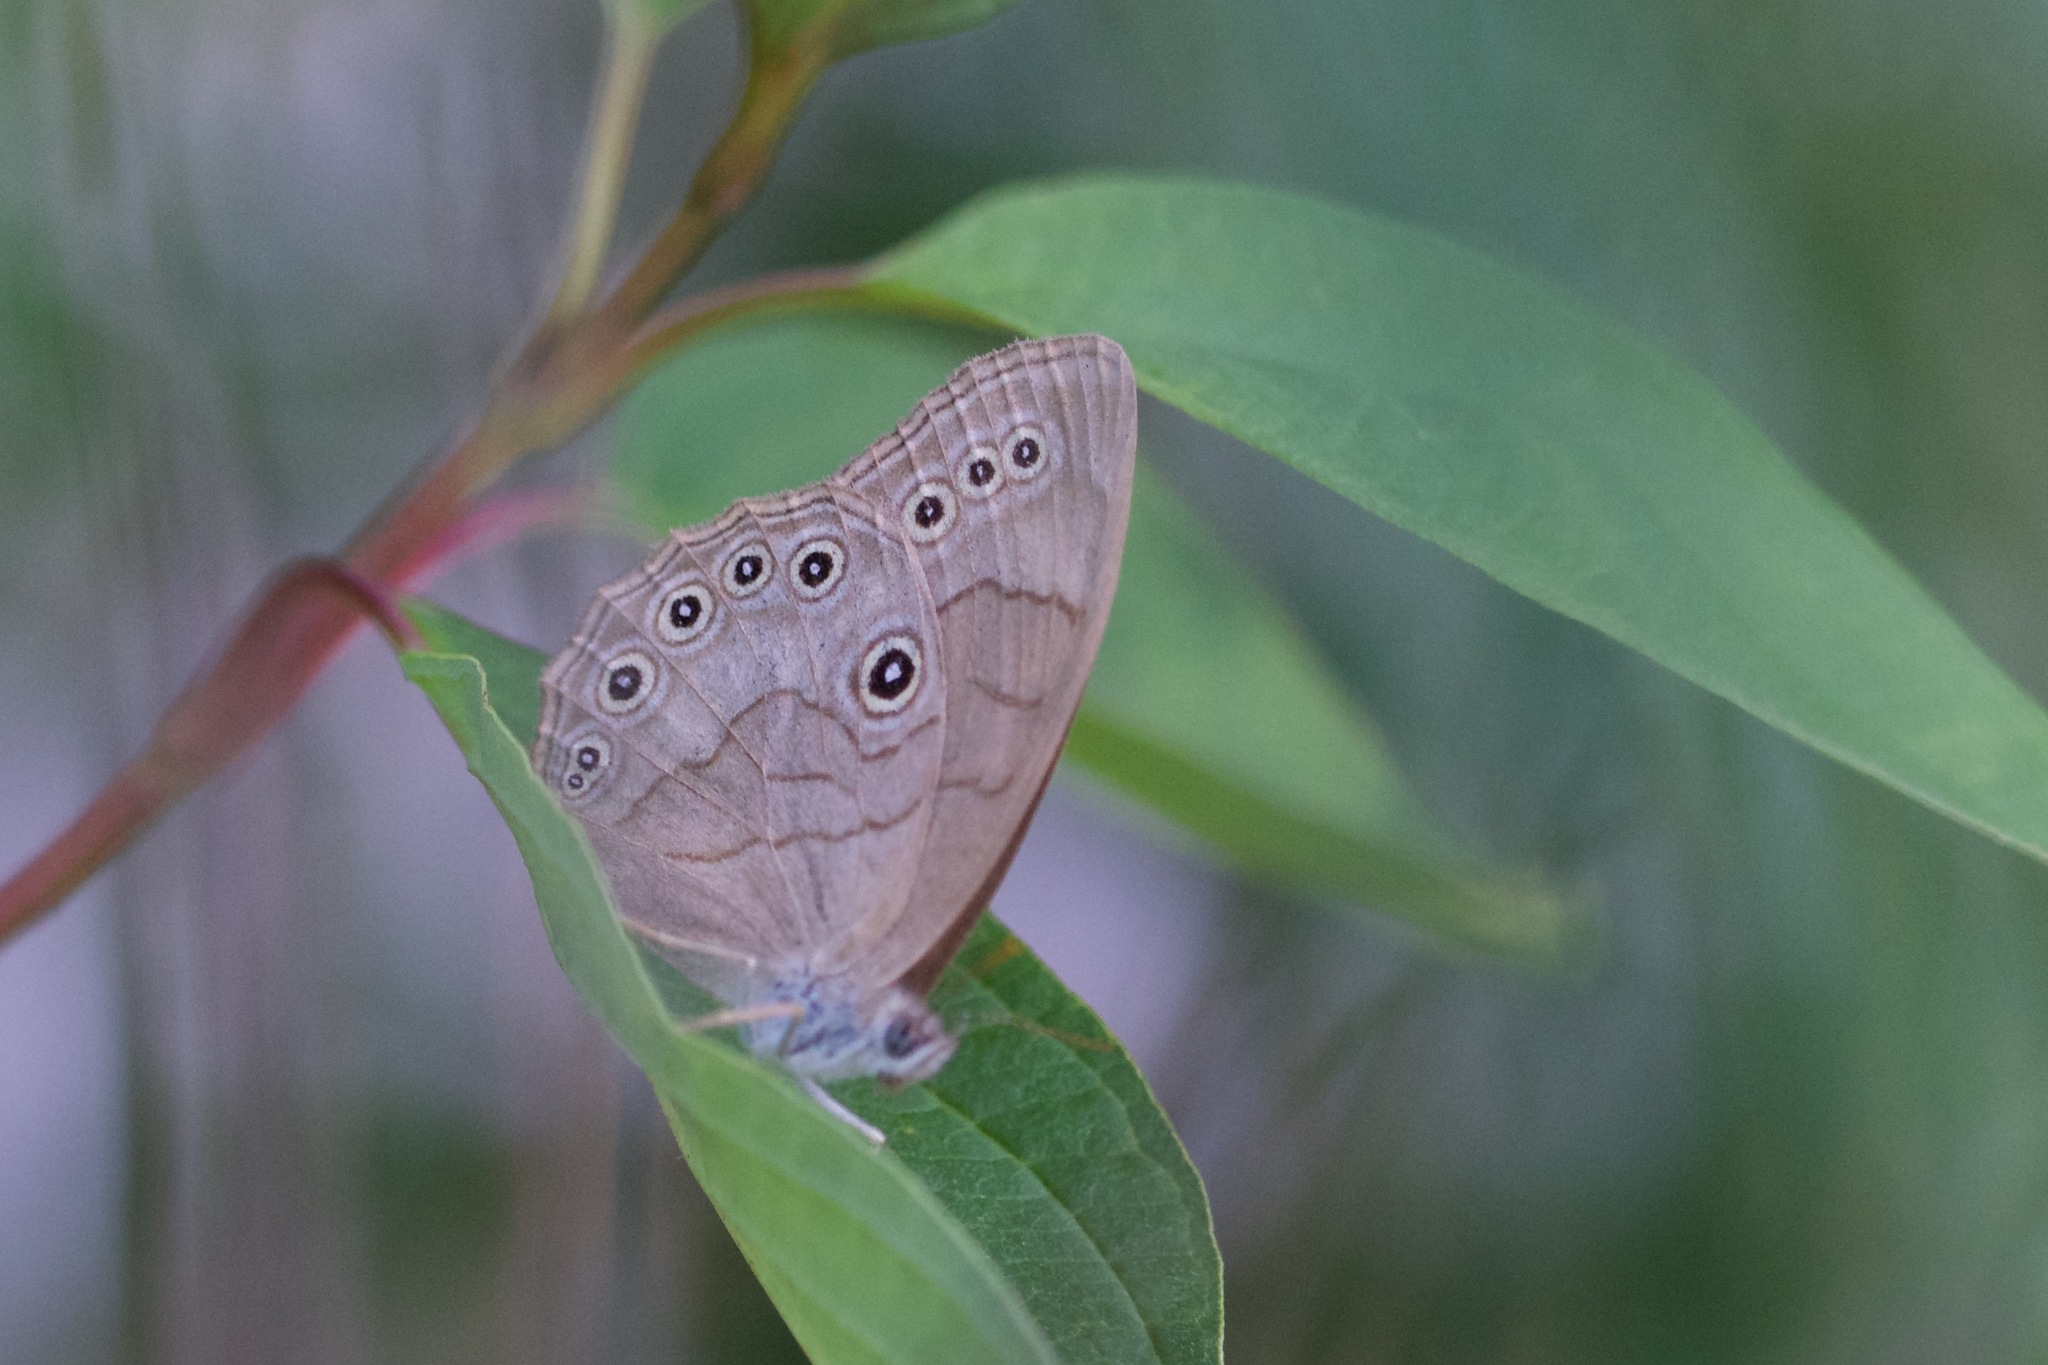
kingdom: Animalia
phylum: Arthropoda
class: Insecta
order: Lepidoptera
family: Nymphalidae
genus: Lethe
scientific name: Lethe eurydice
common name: Eyed brown
